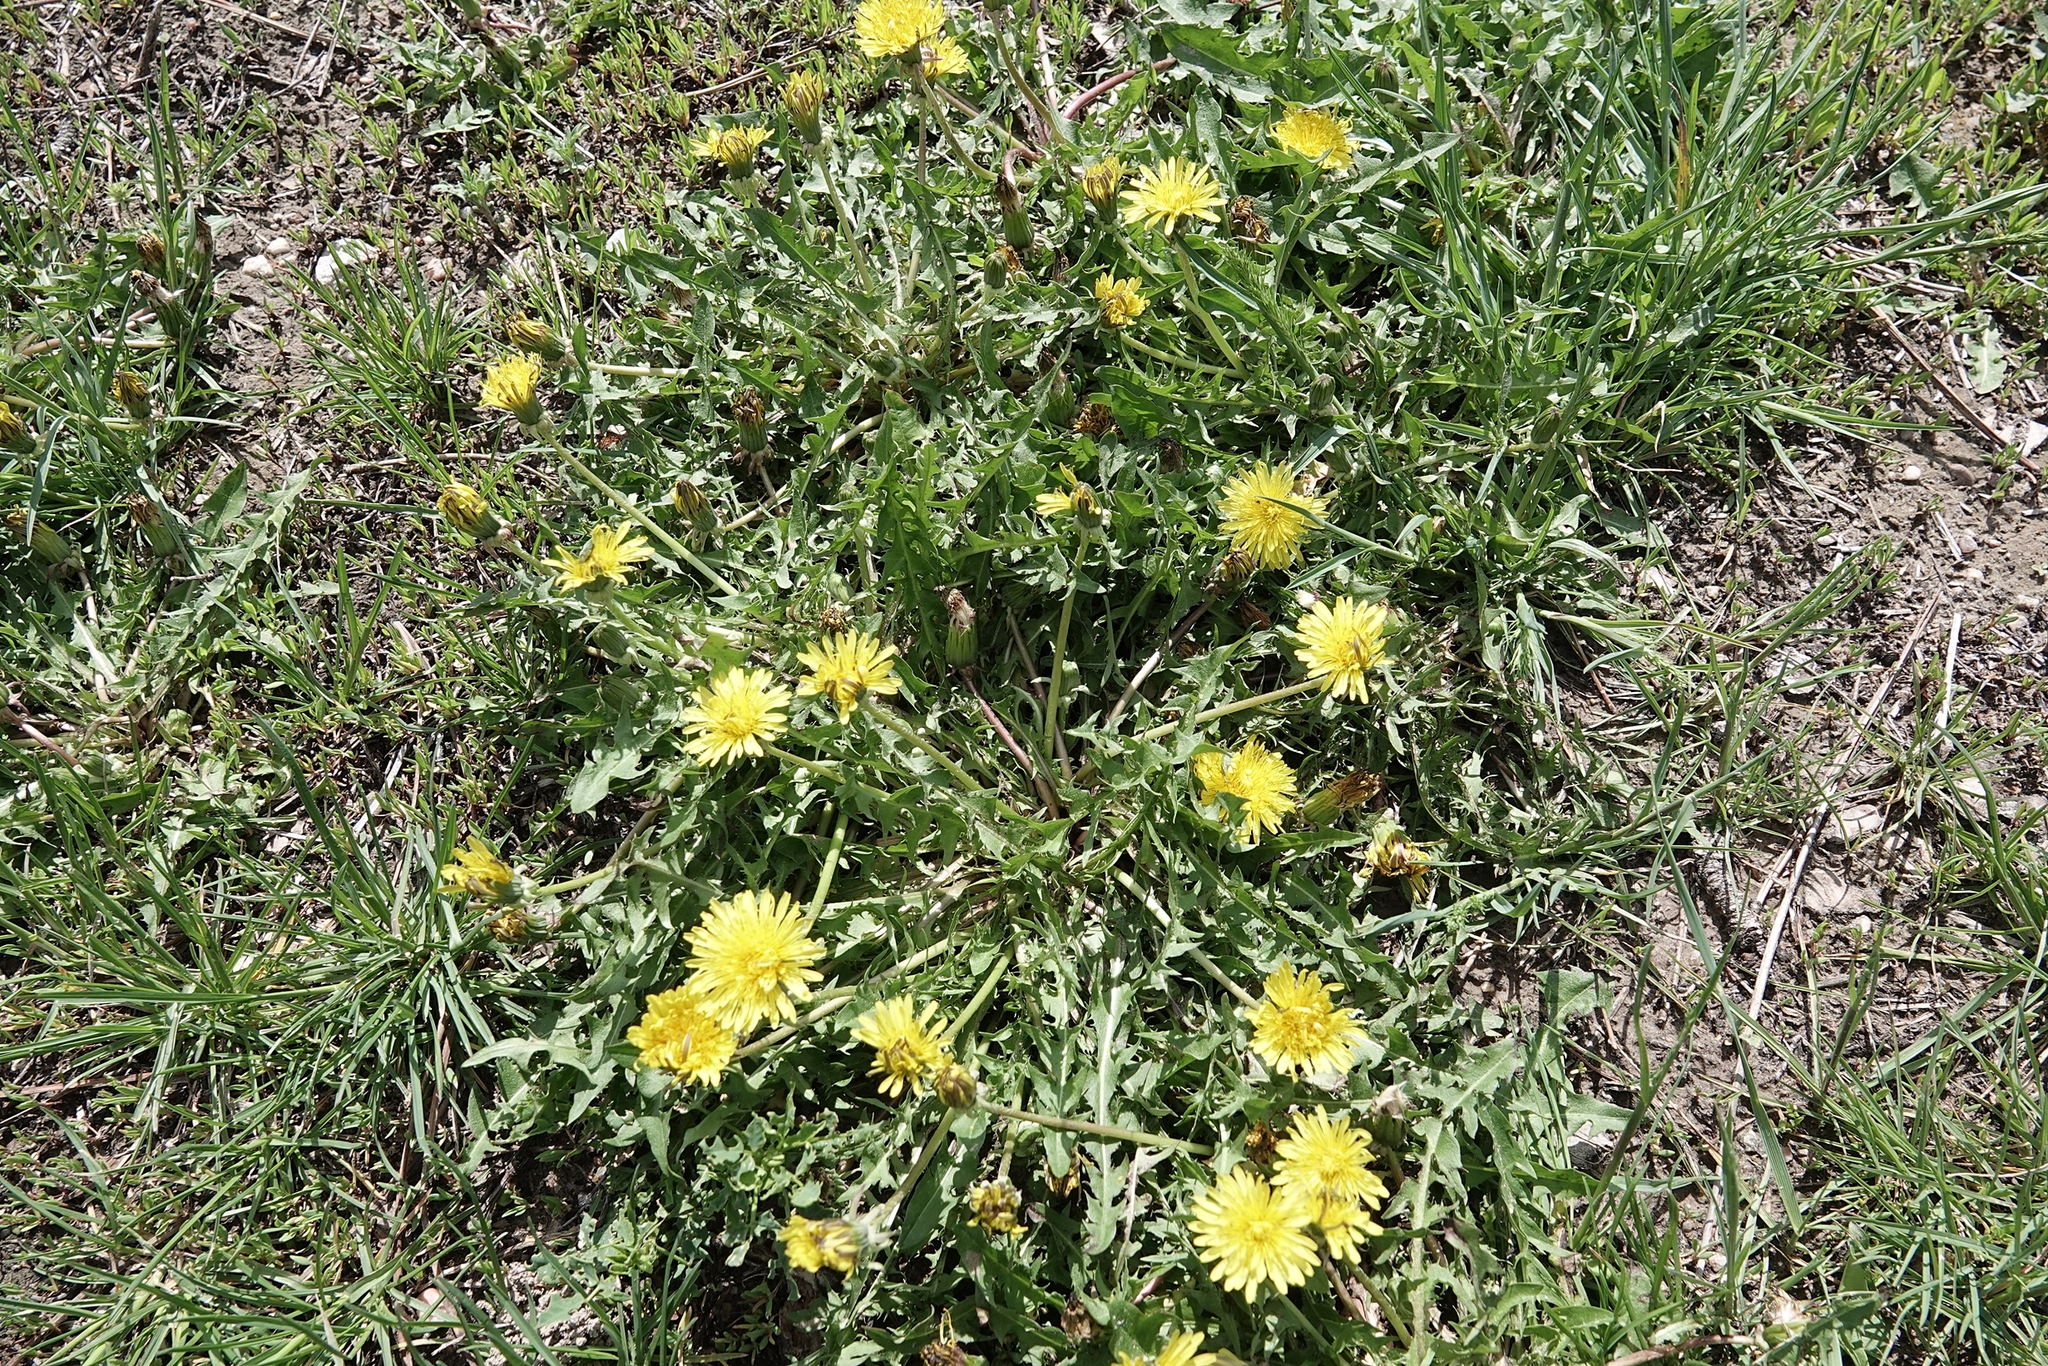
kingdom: Plantae
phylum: Tracheophyta
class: Magnoliopsida
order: Asterales
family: Asteraceae
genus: Taraxacum
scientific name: Taraxacum
